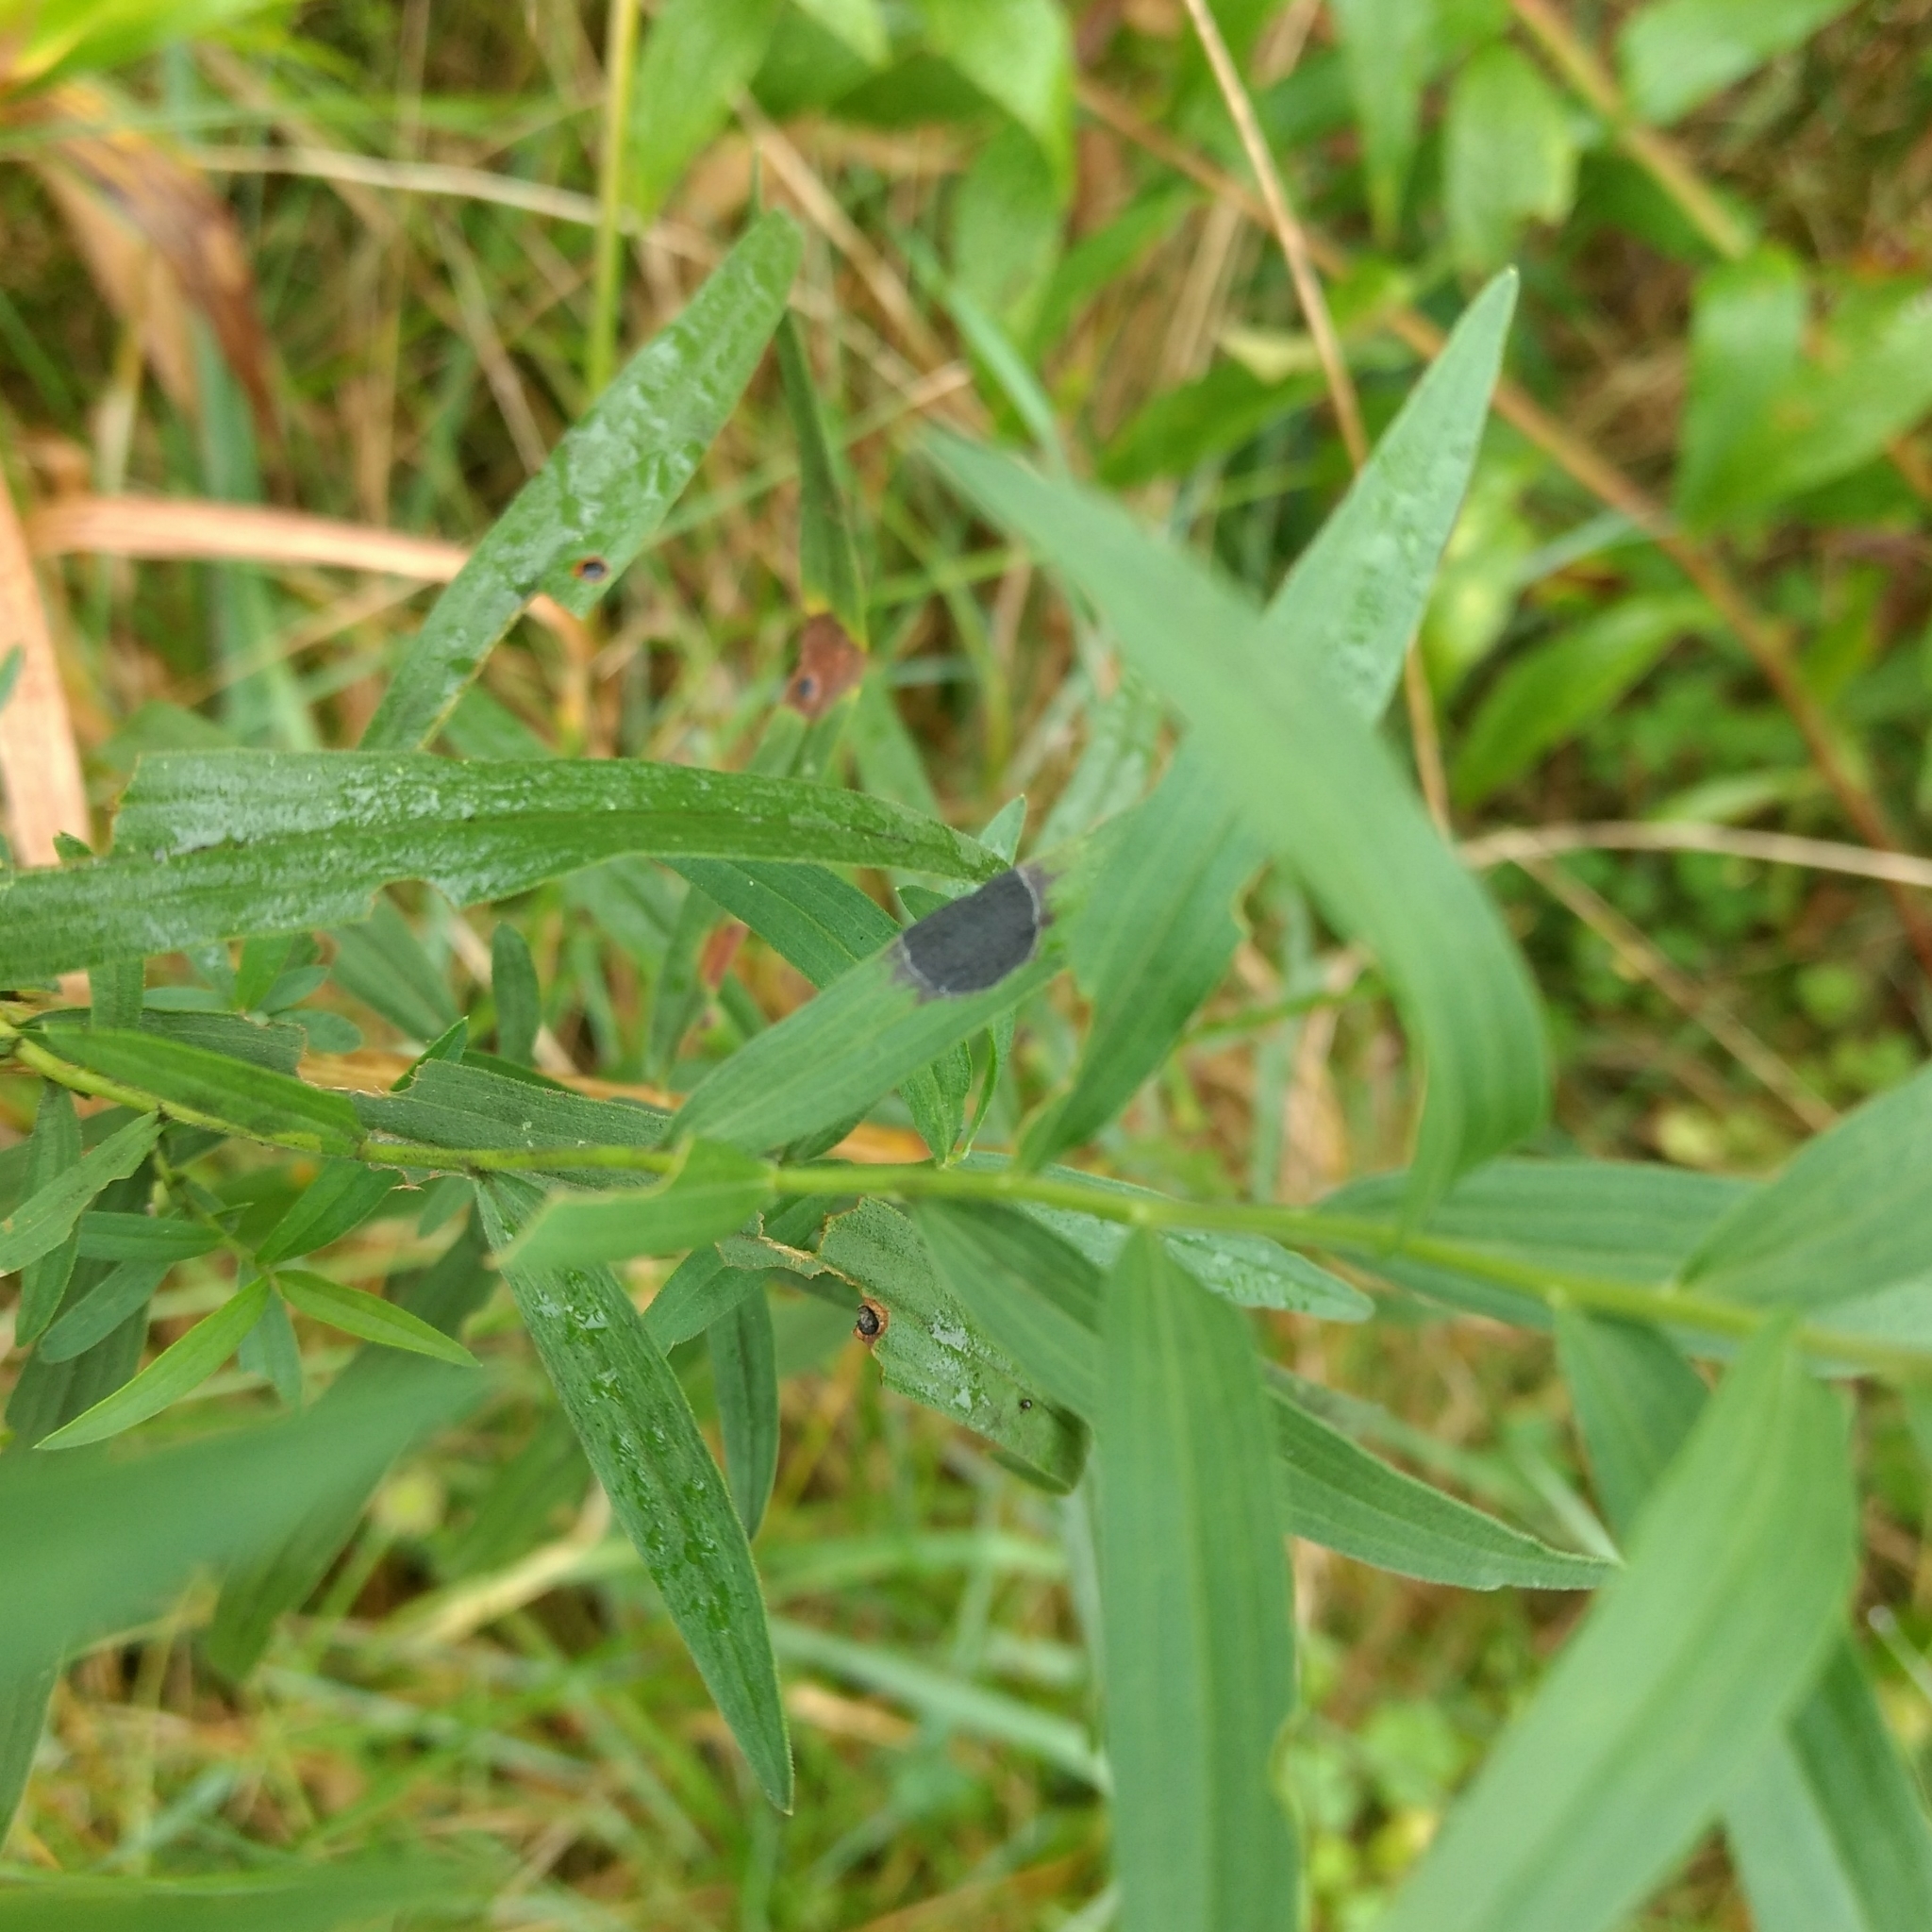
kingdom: Animalia
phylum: Arthropoda
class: Insecta
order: Diptera
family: Cecidomyiidae
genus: Asteromyia
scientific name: Asteromyia euthamiae
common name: Euthamia leaf gall midge
